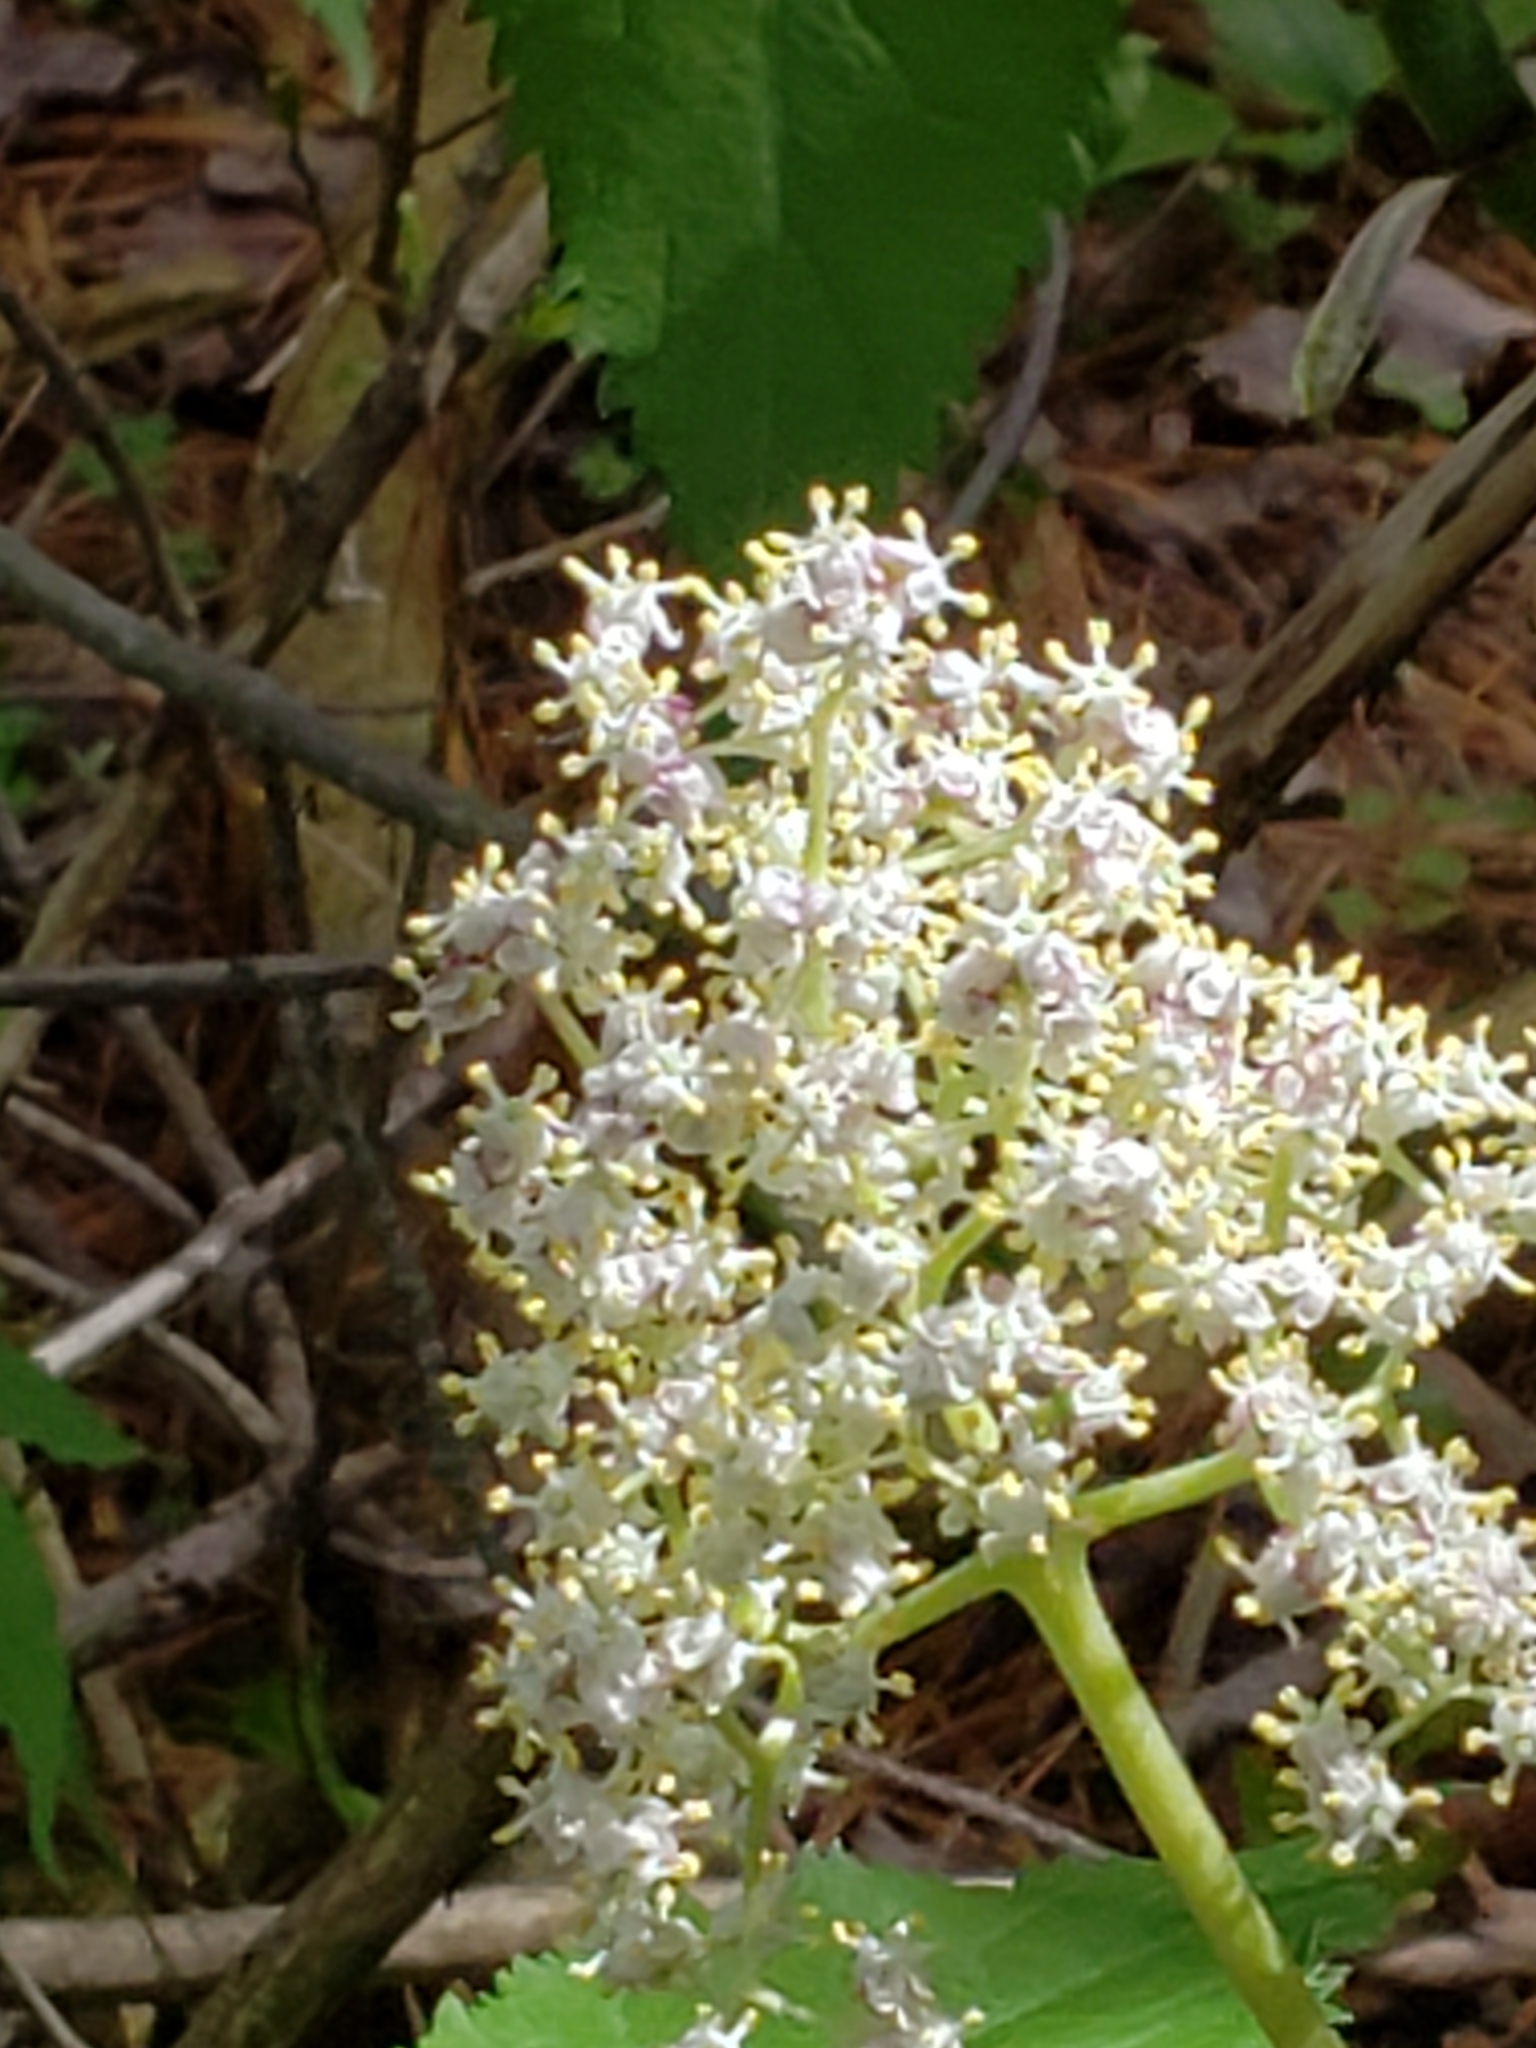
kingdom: Plantae
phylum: Tracheophyta
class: Magnoliopsida
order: Dipsacales
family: Viburnaceae
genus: Sambucus
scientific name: Sambucus racemosa
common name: Red-berried elder
